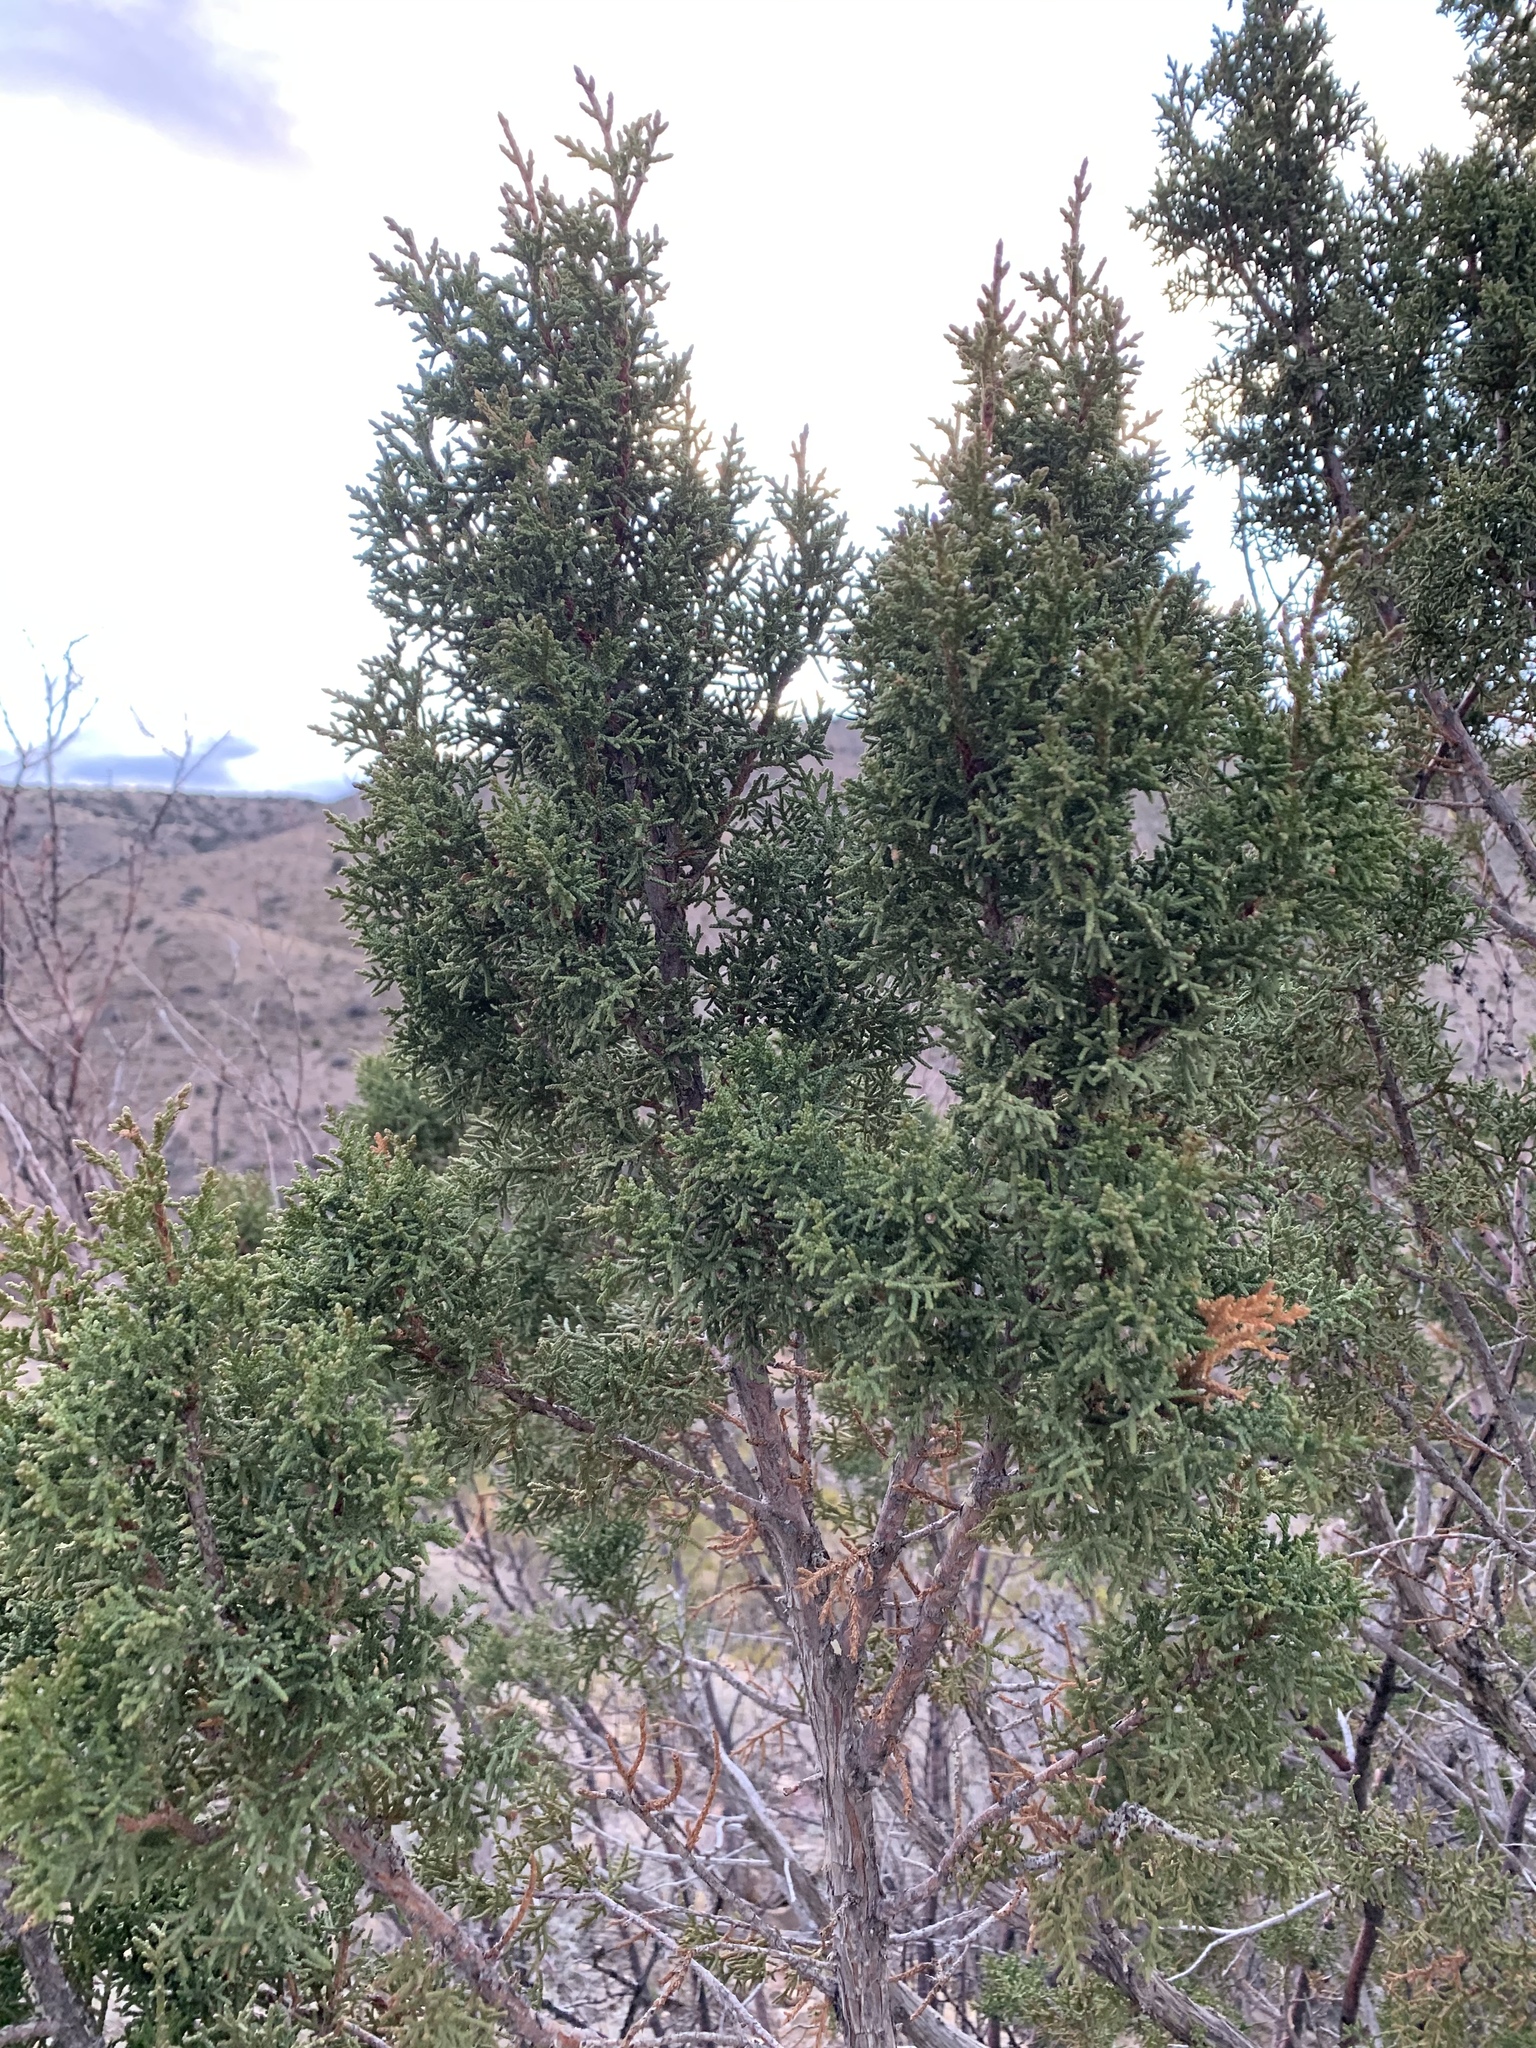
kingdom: Plantae
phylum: Tracheophyta
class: Pinopsida
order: Pinales
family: Cupressaceae
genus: Juniperus
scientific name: Juniperus monosperma
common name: One-seed juniper
